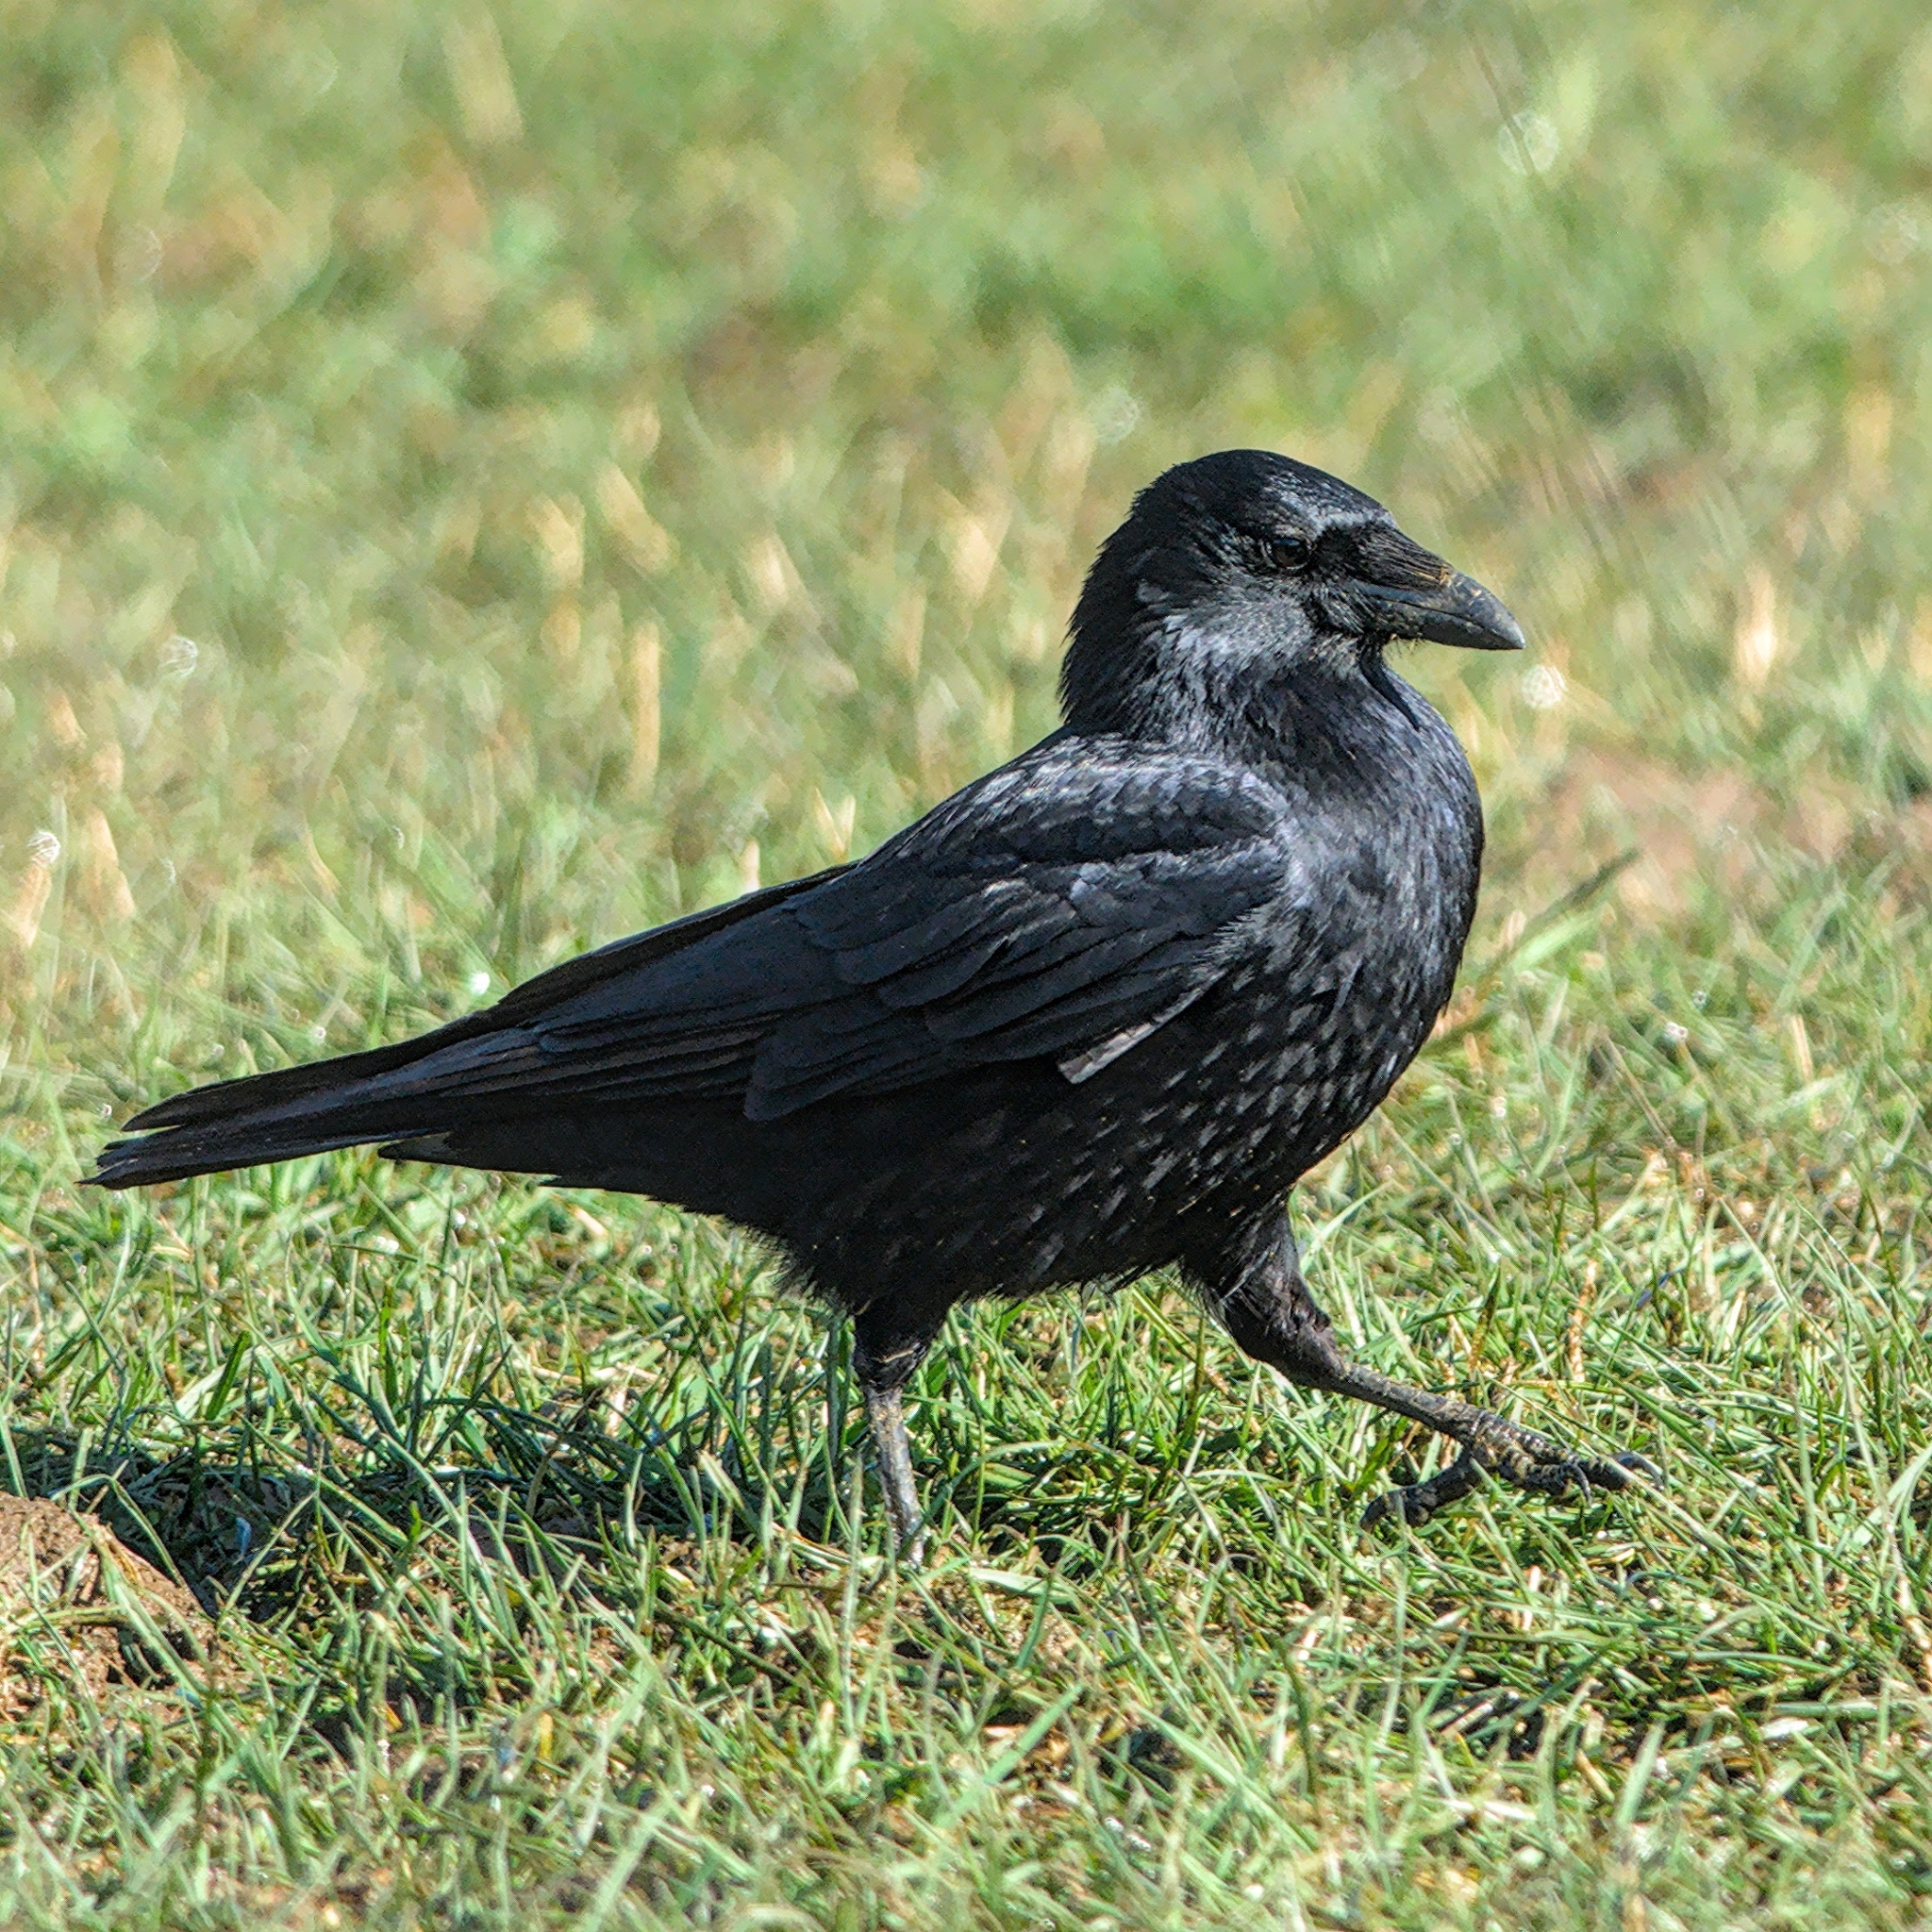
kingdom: Animalia
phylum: Chordata
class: Aves
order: Passeriformes
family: Corvidae
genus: Corvus
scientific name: Corvus corone
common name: Carrion crow
